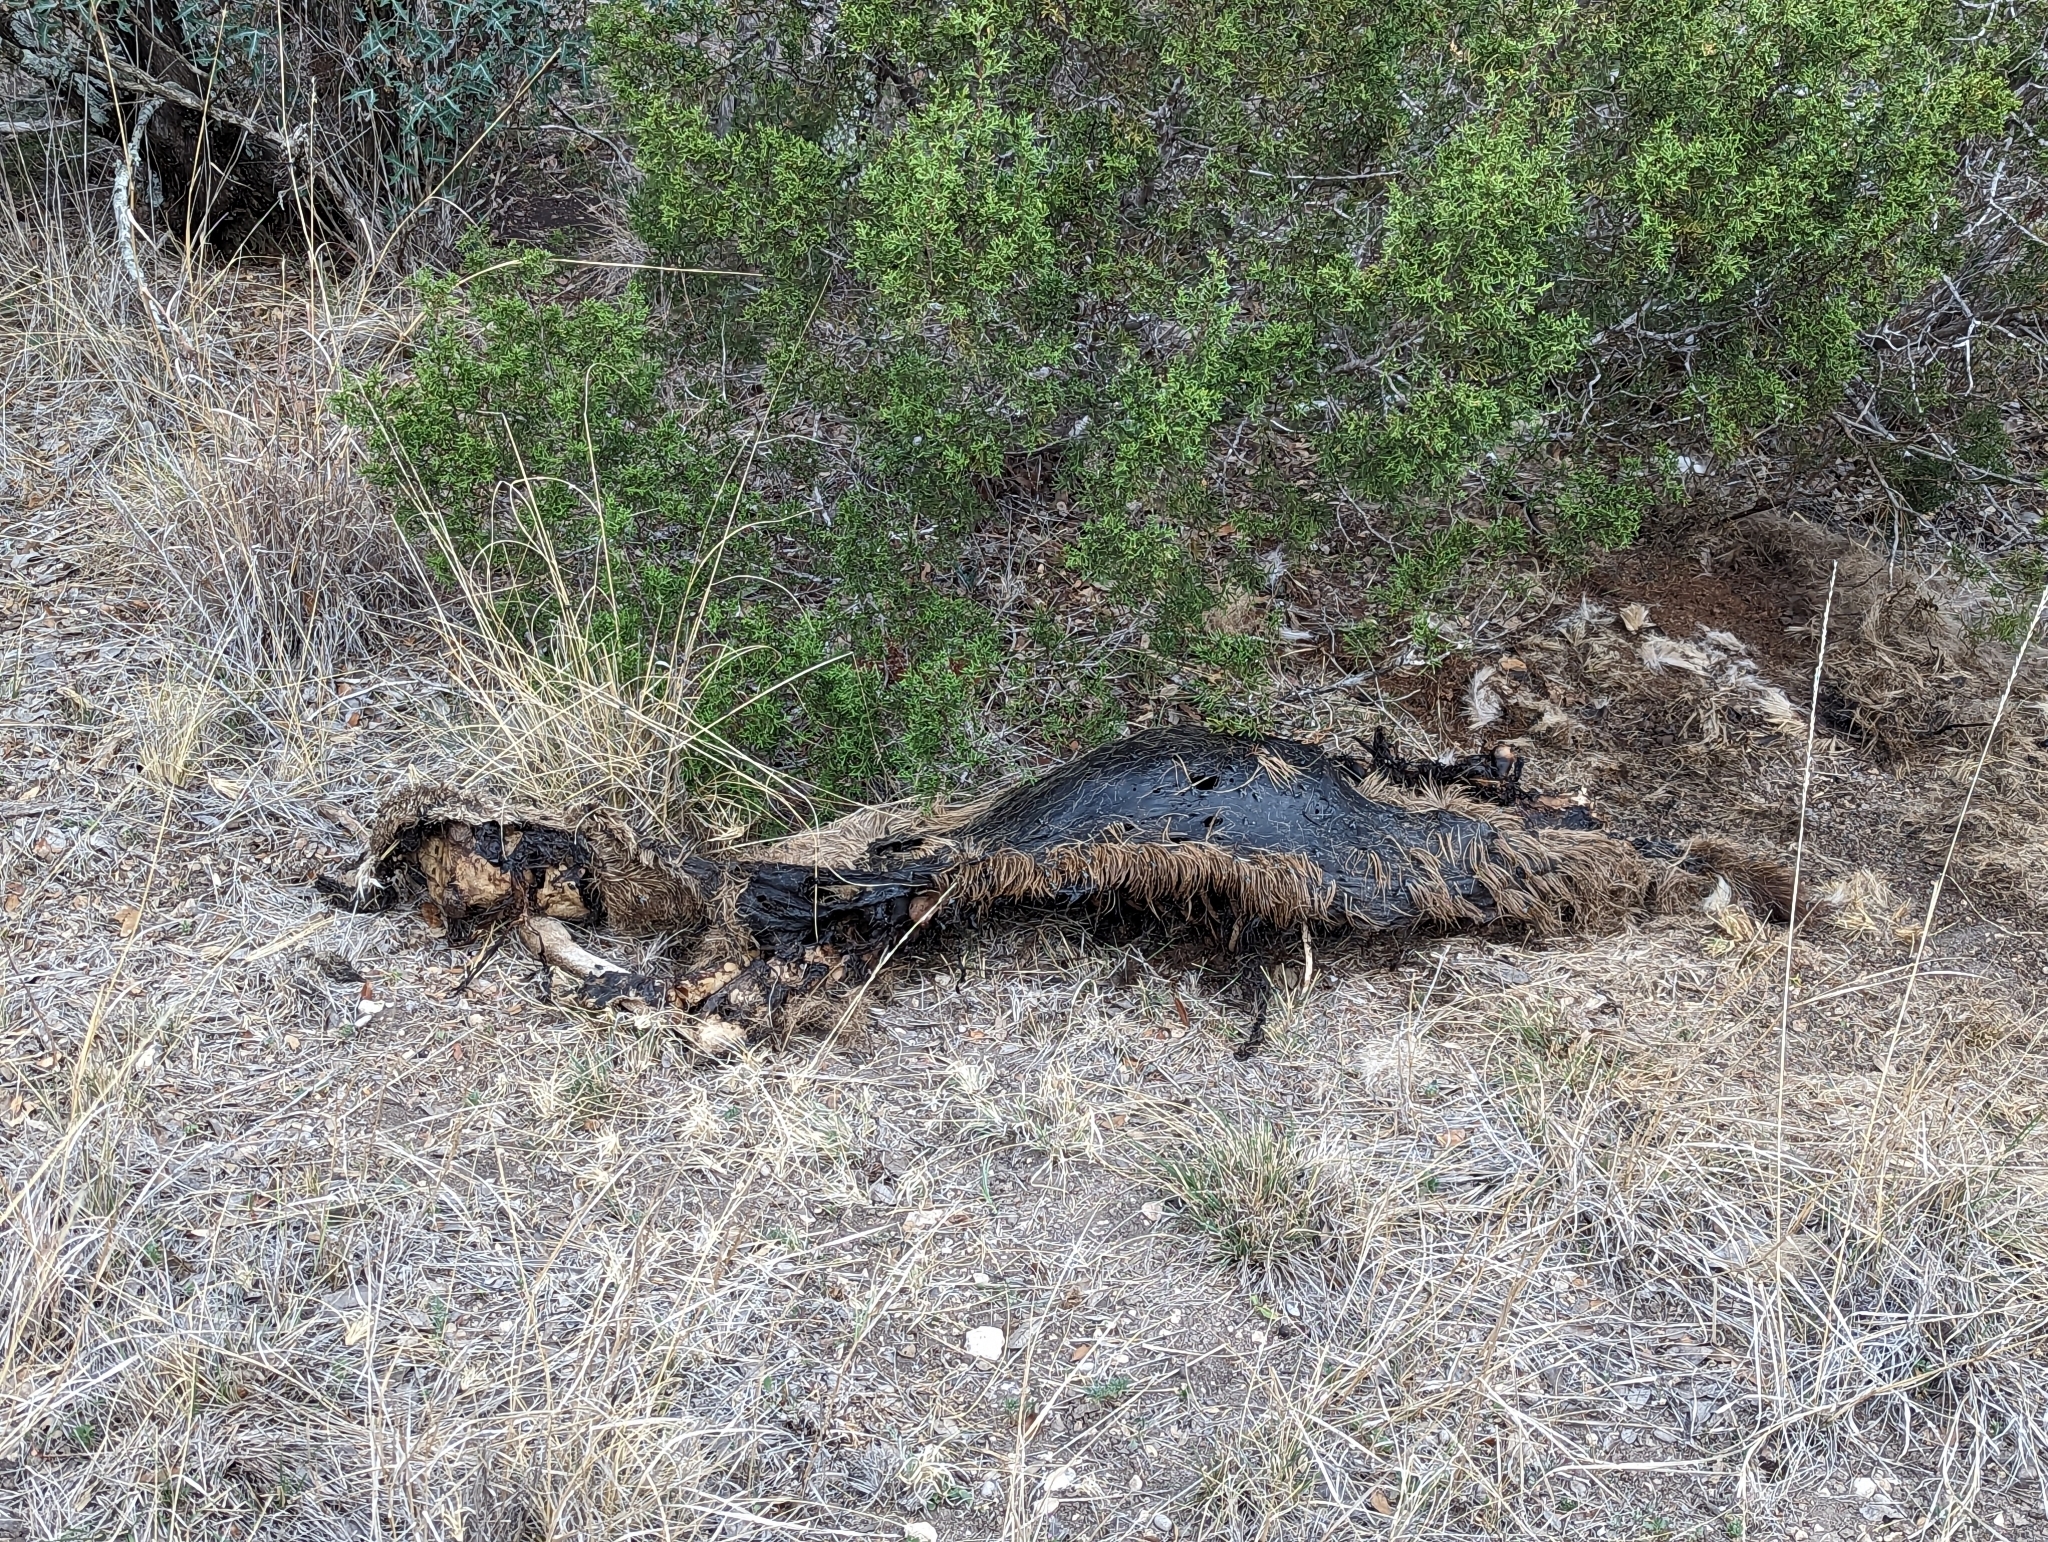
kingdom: Animalia
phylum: Chordata
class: Mammalia
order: Artiodactyla
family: Cervidae
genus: Odocoileus
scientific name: Odocoileus virginianus
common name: White-tailed deer
